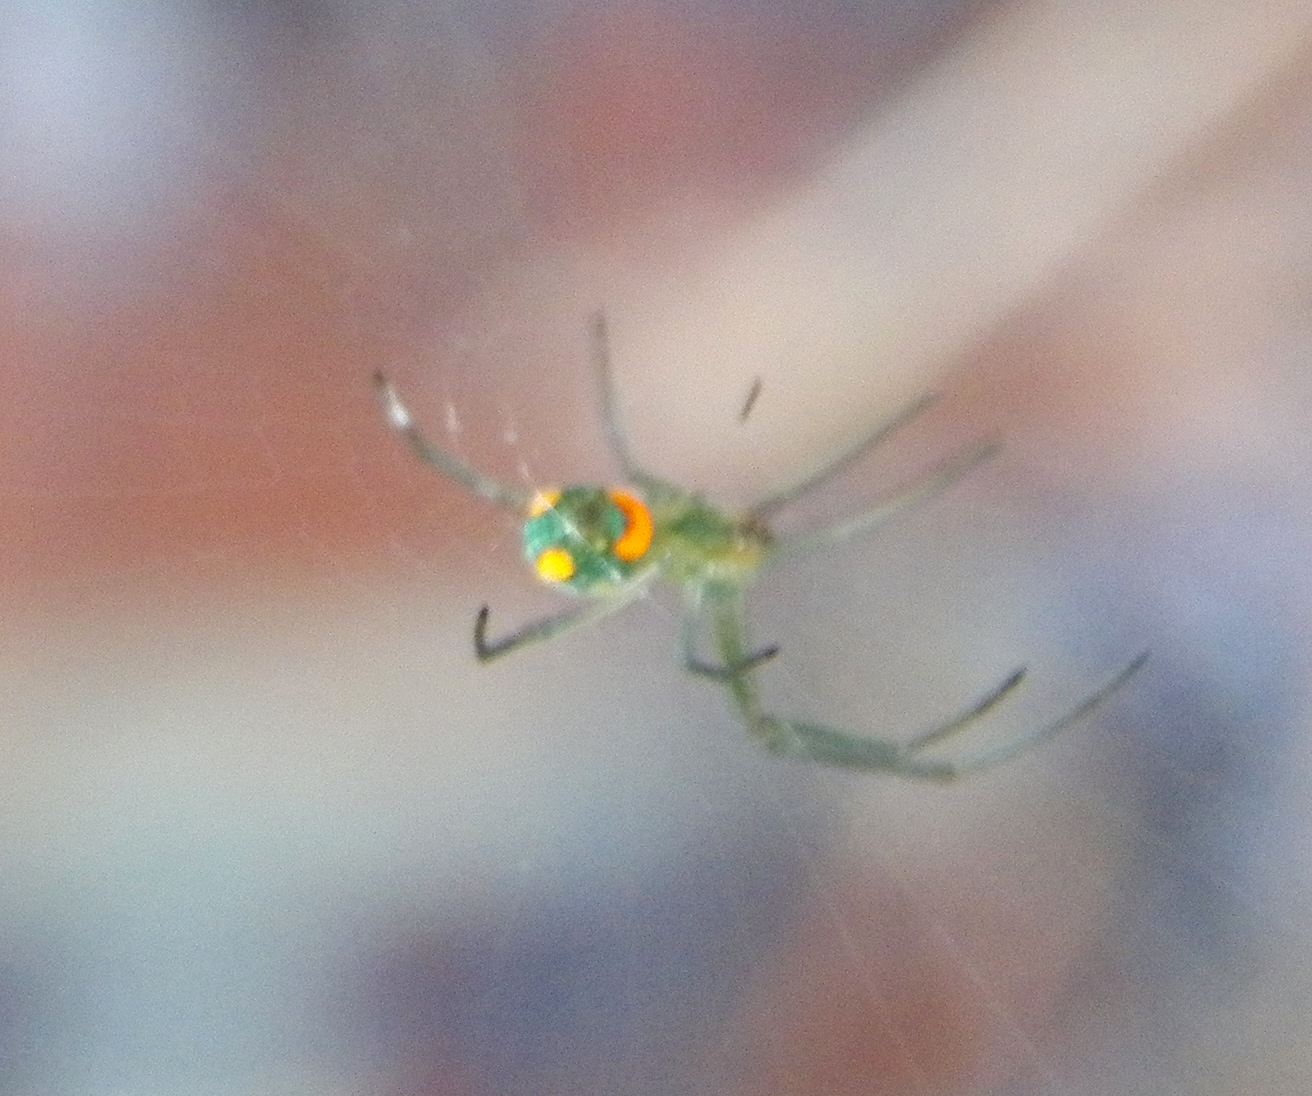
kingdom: Animalia
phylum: Arthropoda
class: Arachnida
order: Araneae
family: Tetragnathidae
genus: Leucauge
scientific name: Leucauge argyrobapta
